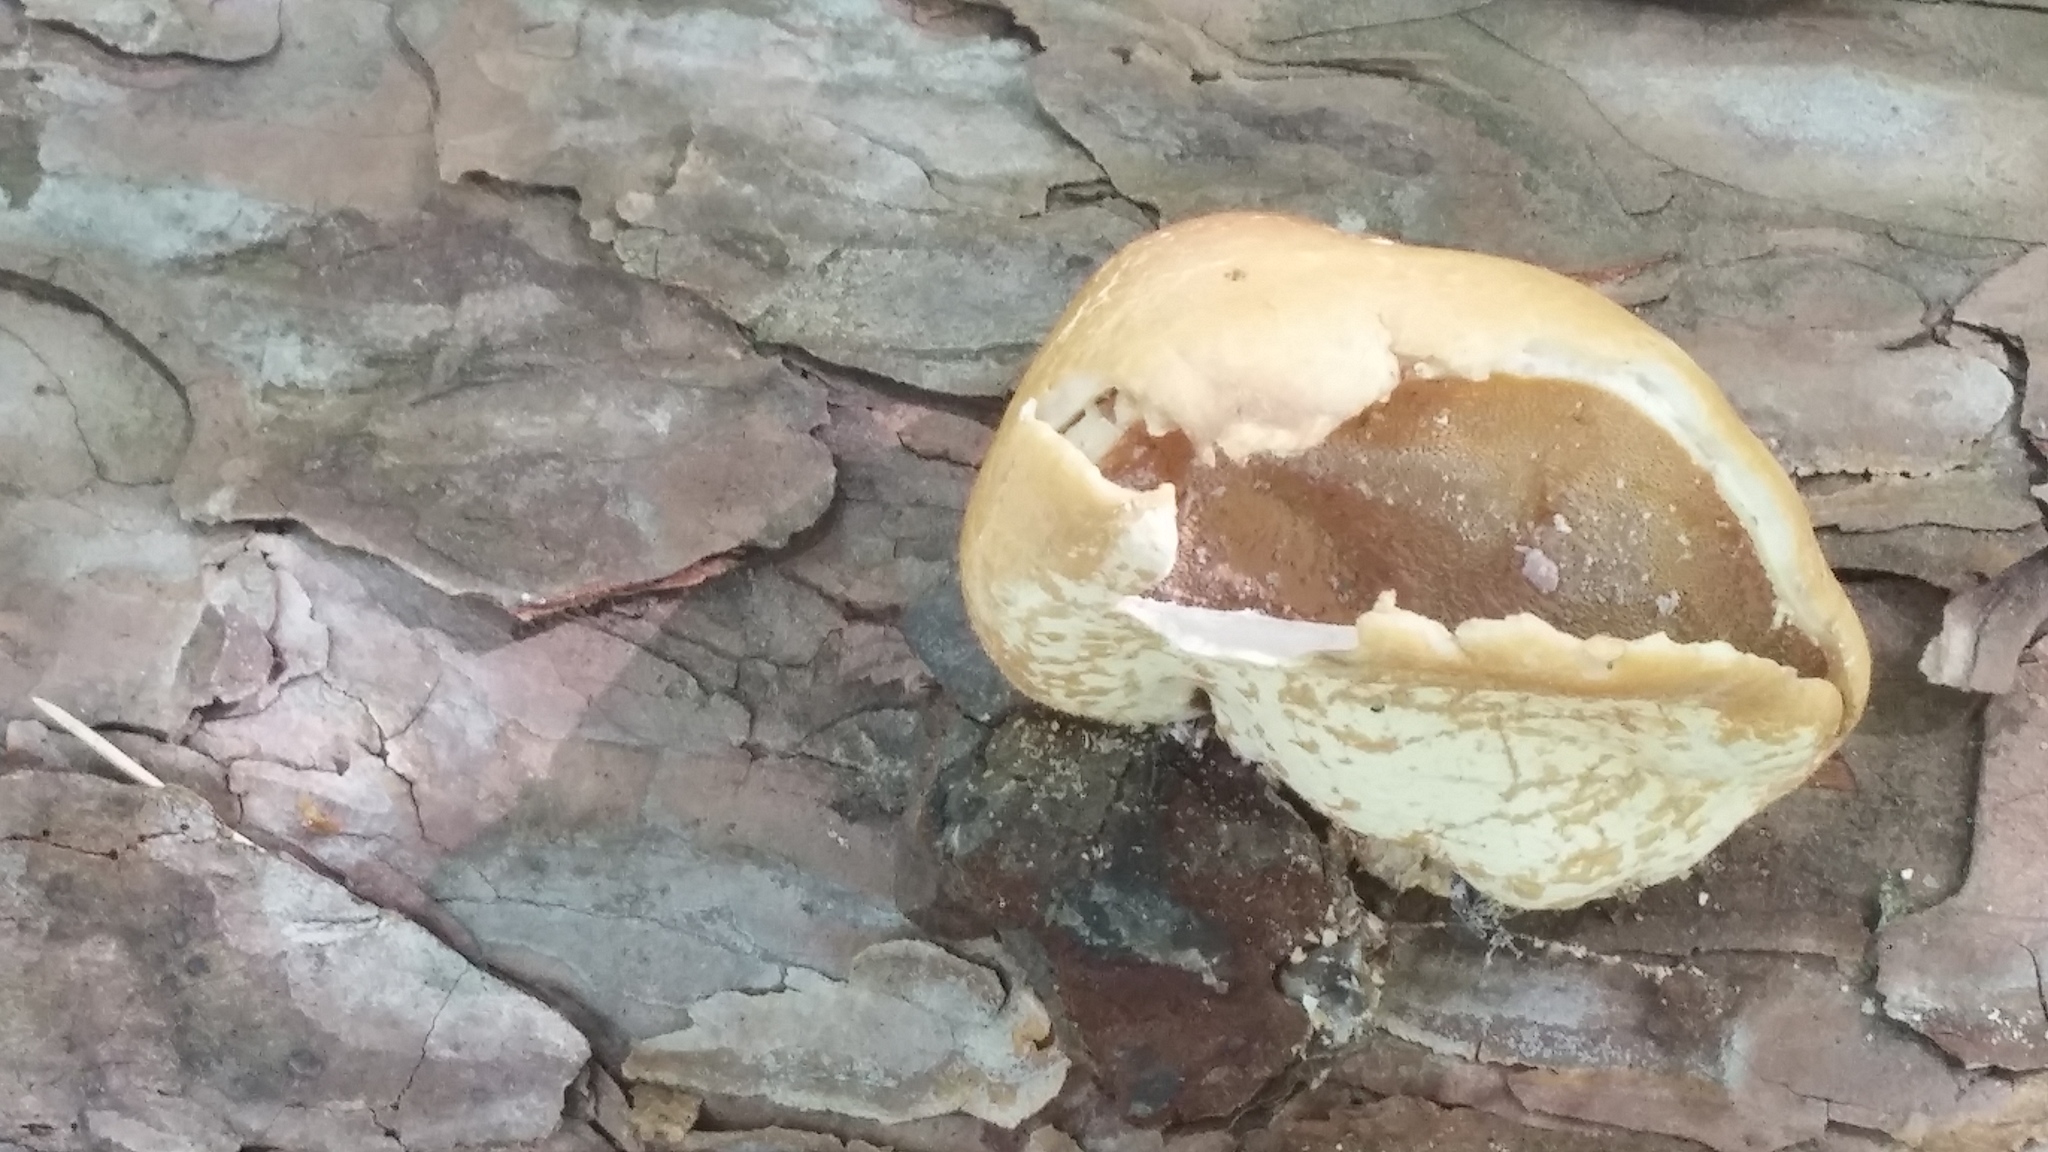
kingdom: Fungi
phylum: Basidiomycota
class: Agaricomycetes
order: Polyporales
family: Polyporaceae
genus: Cryptoporus
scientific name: Cryptoporus volvatus
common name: Veiled polypore
